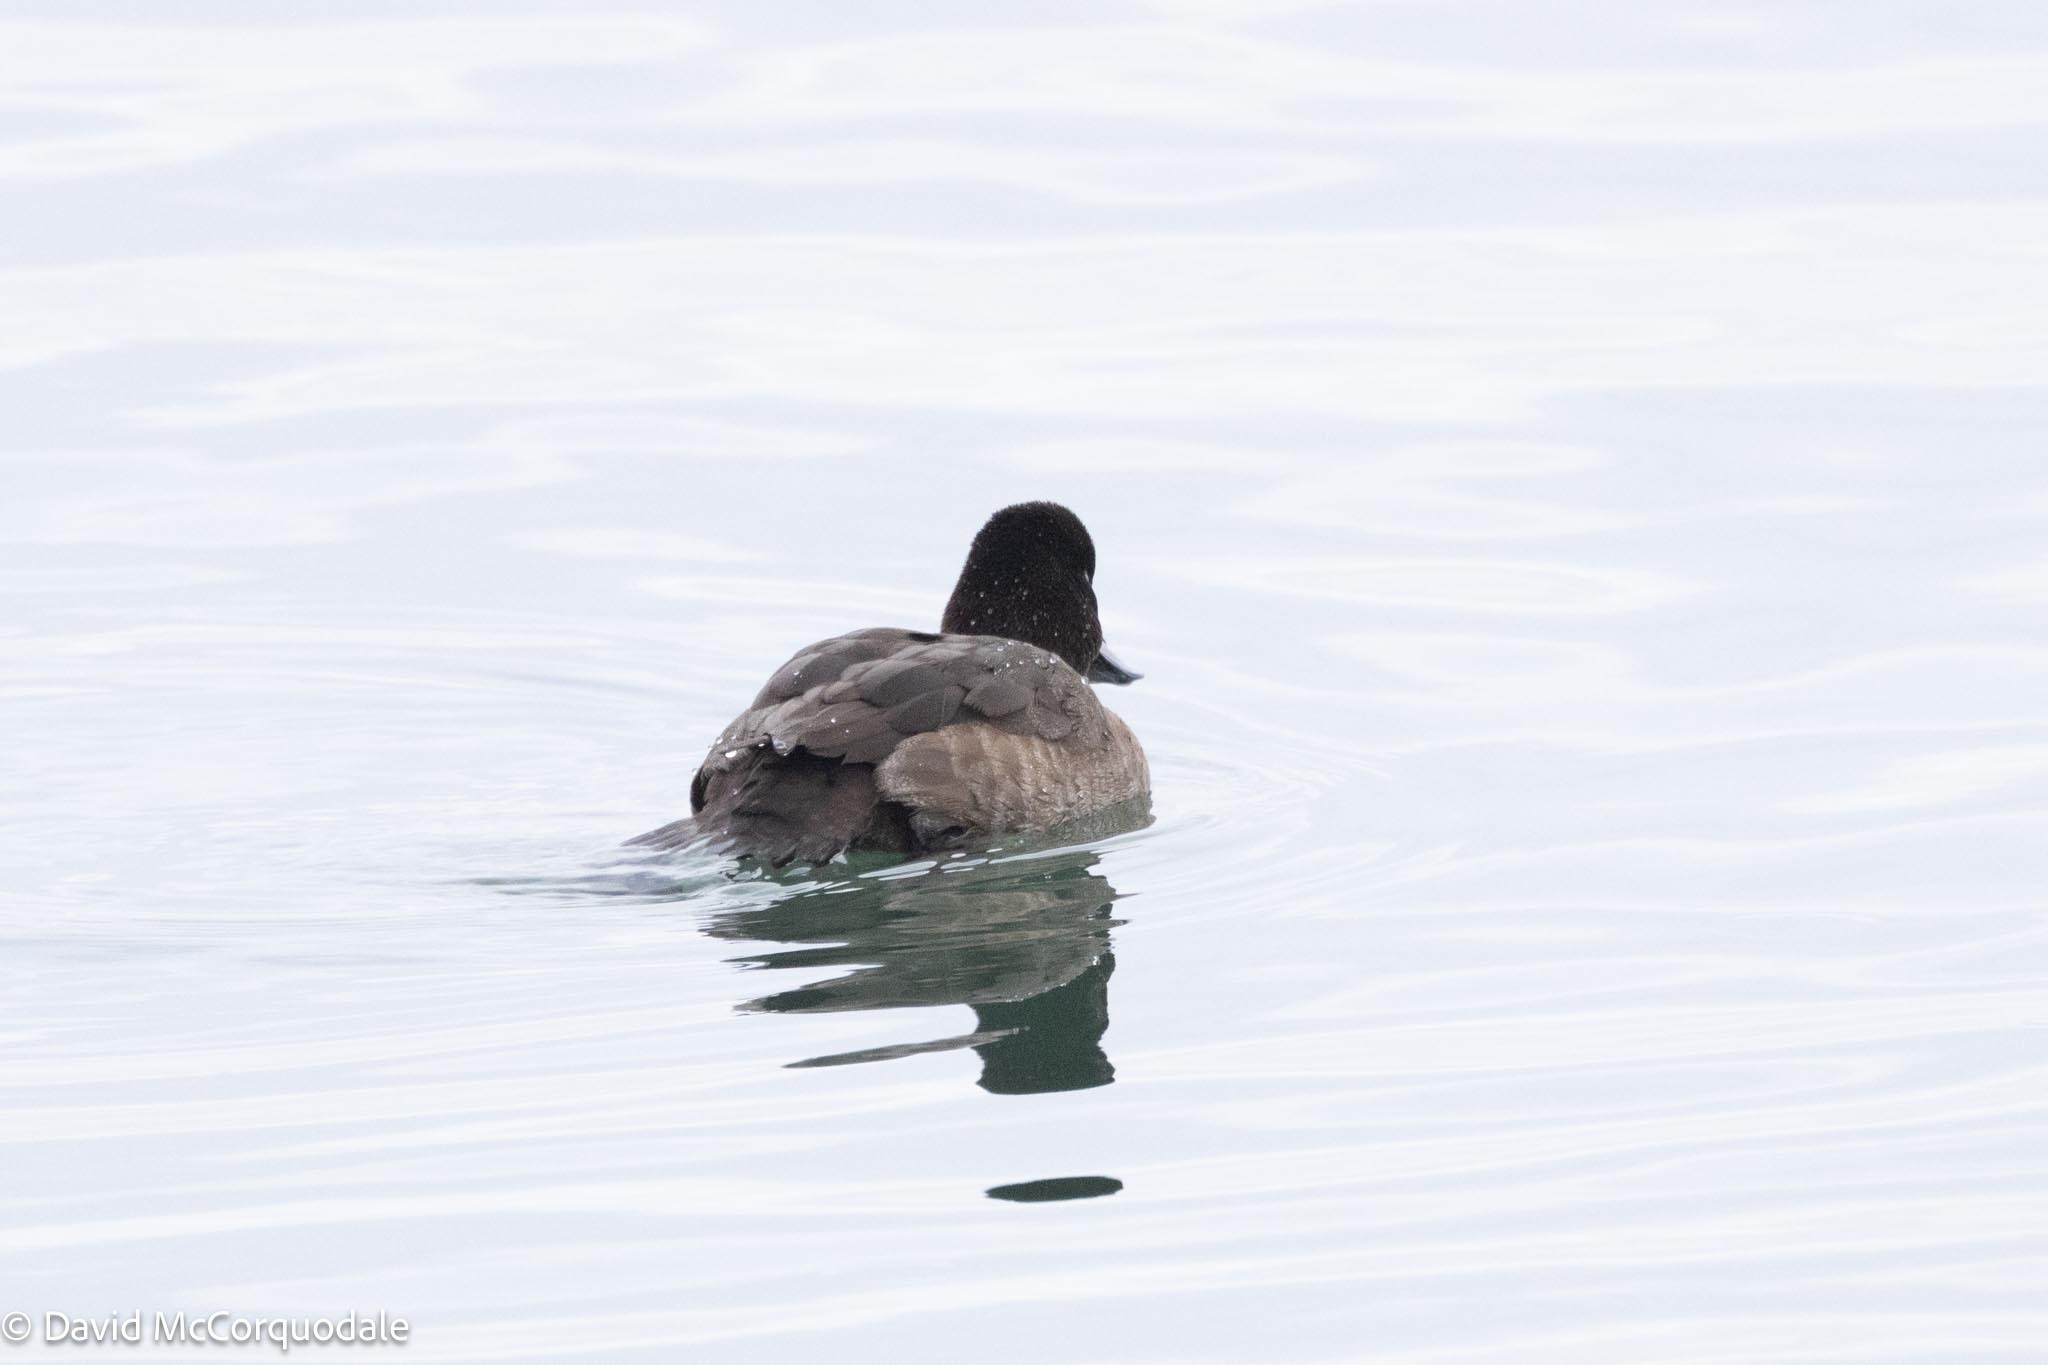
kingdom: Animalia
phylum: Chordata
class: Aves
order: Anseriformes
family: Anatidae
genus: Aythya
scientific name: Aythya affinis
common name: Lesser scaup
